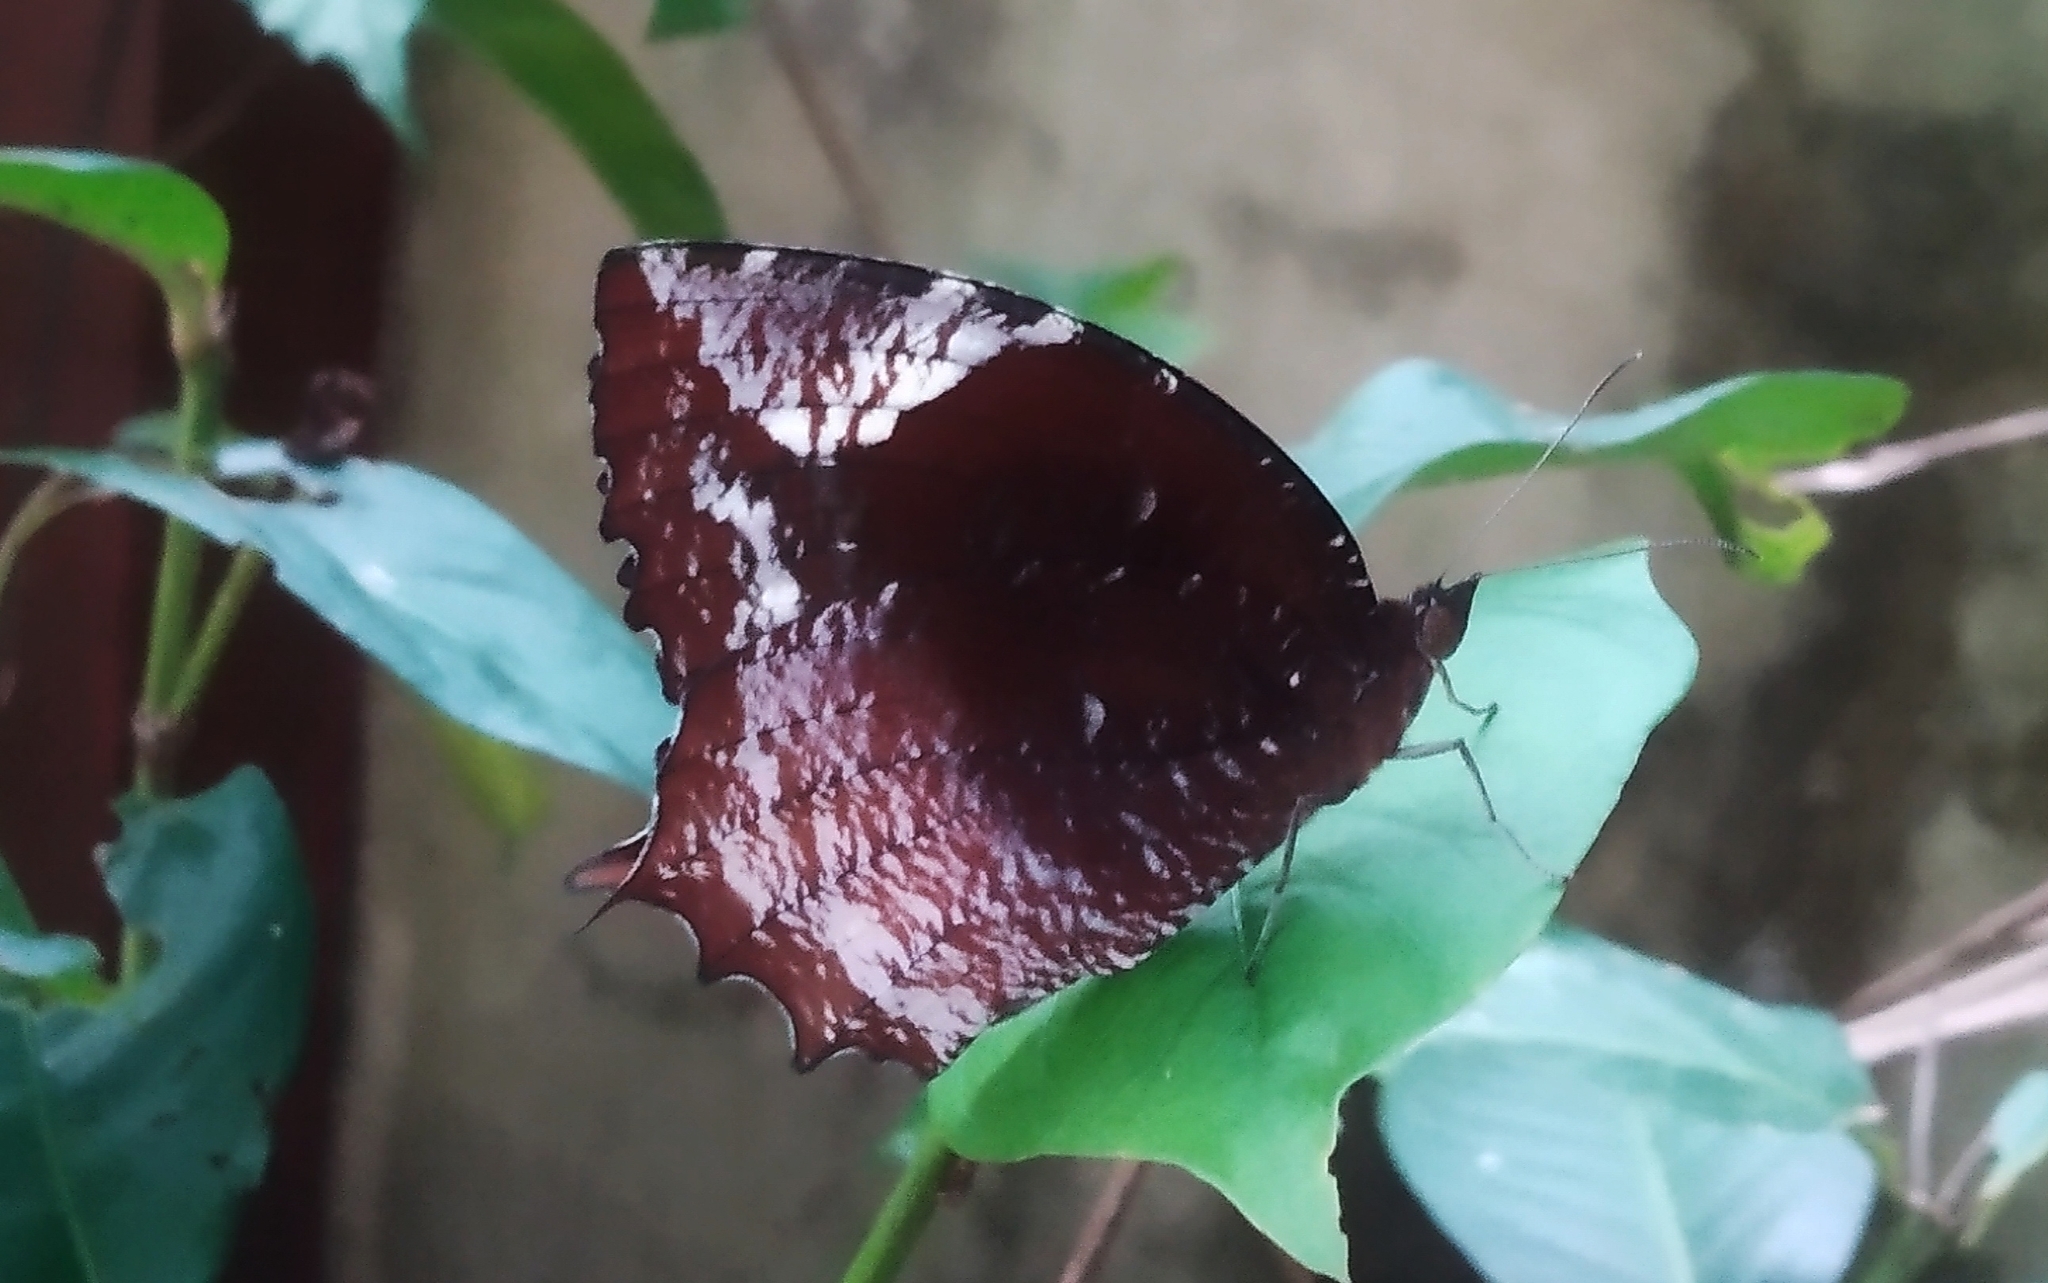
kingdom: Animalia
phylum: Arthropoda
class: Insecta
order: Lepidoptera
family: Nymphalidae
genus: Elymnias
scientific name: Elymnias caudata
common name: Tailed palmfly
